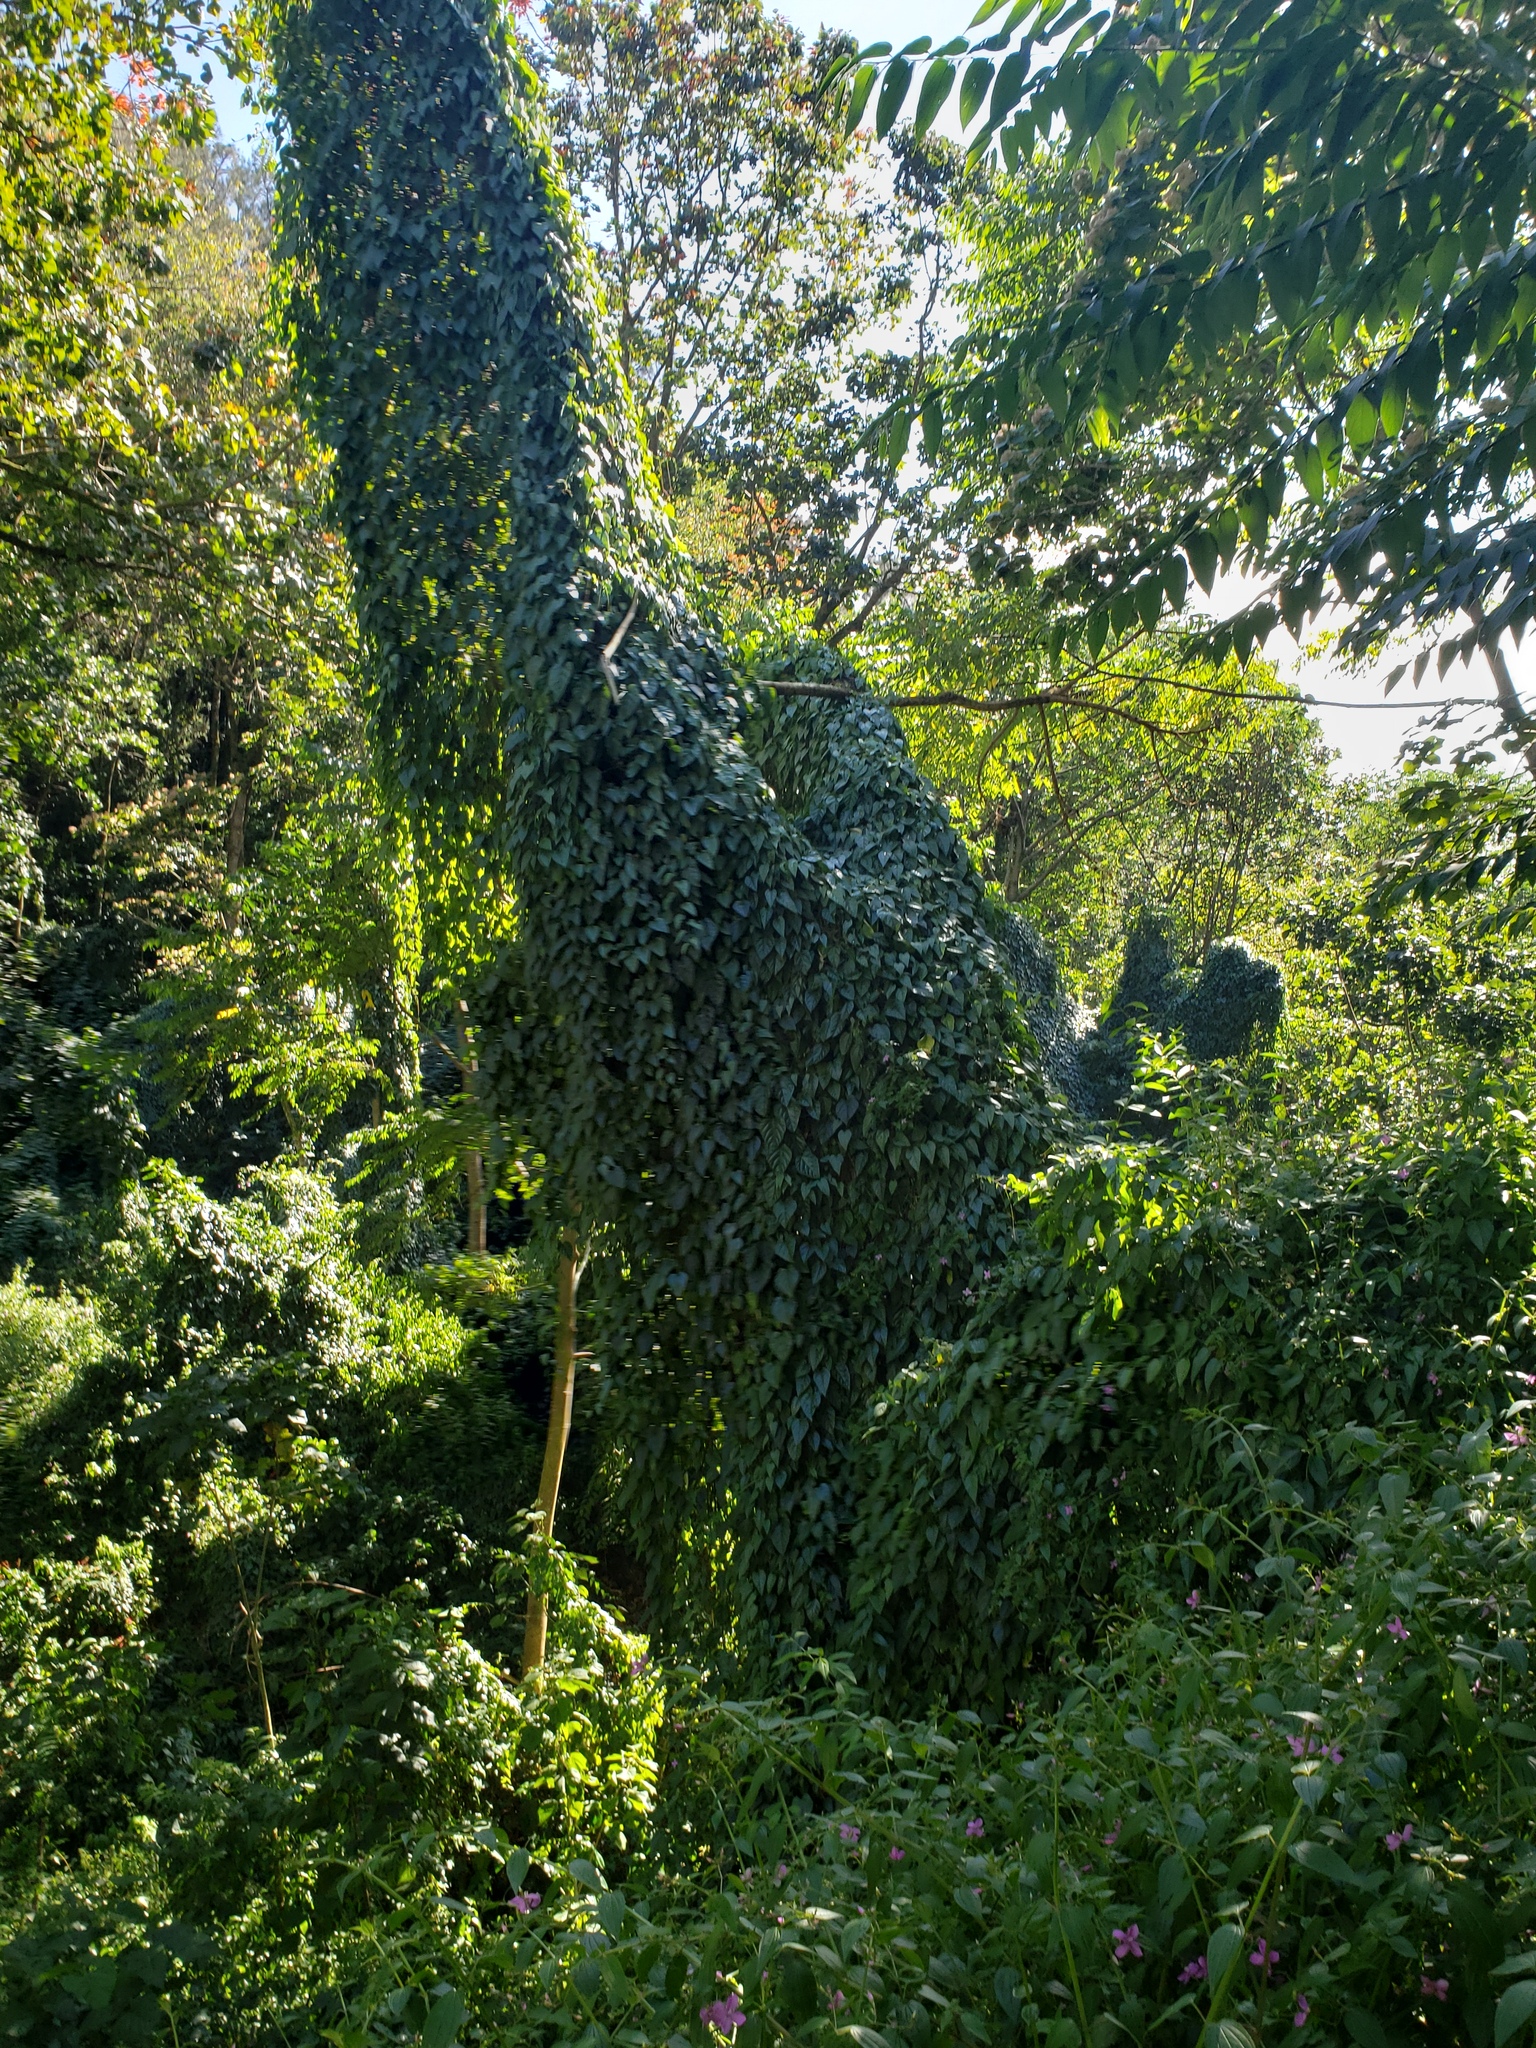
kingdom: Plantae
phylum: Tracheophyta
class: Magnoliopsida
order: Vitales
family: Vitaceae
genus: Cissus
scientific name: Cissus verticillata
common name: Princess vine
